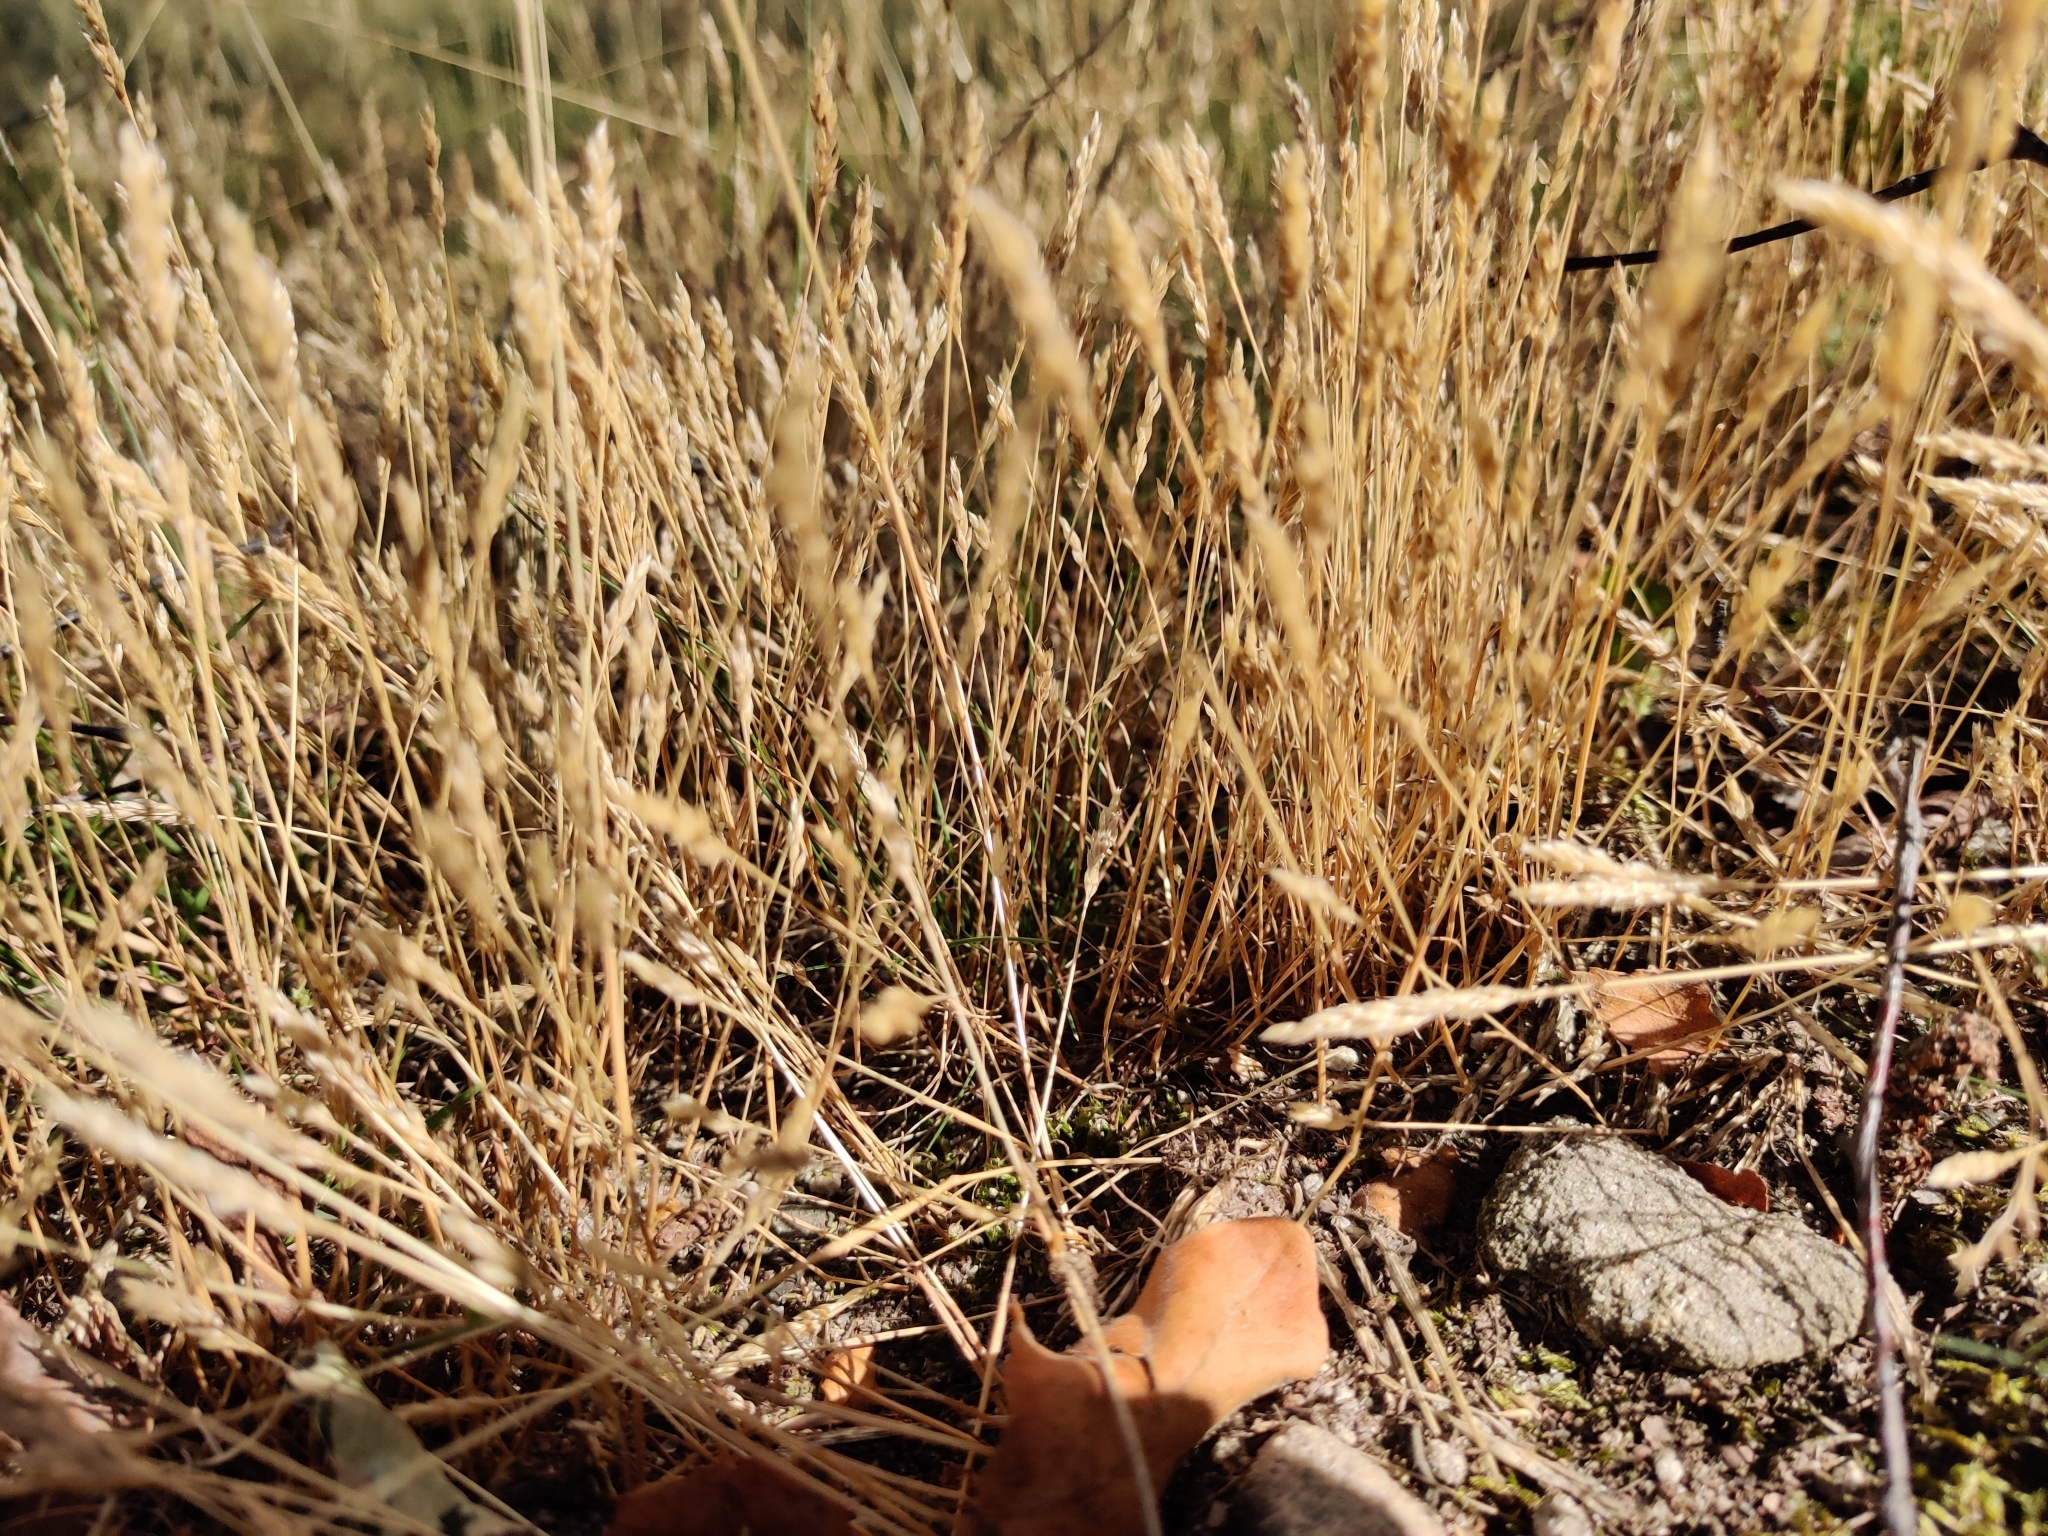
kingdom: Plantae
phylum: Tracheophyta
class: Liliopsida
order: Poales
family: Poaceae
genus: Aira
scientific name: Aira praecox
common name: Early hair-grass
